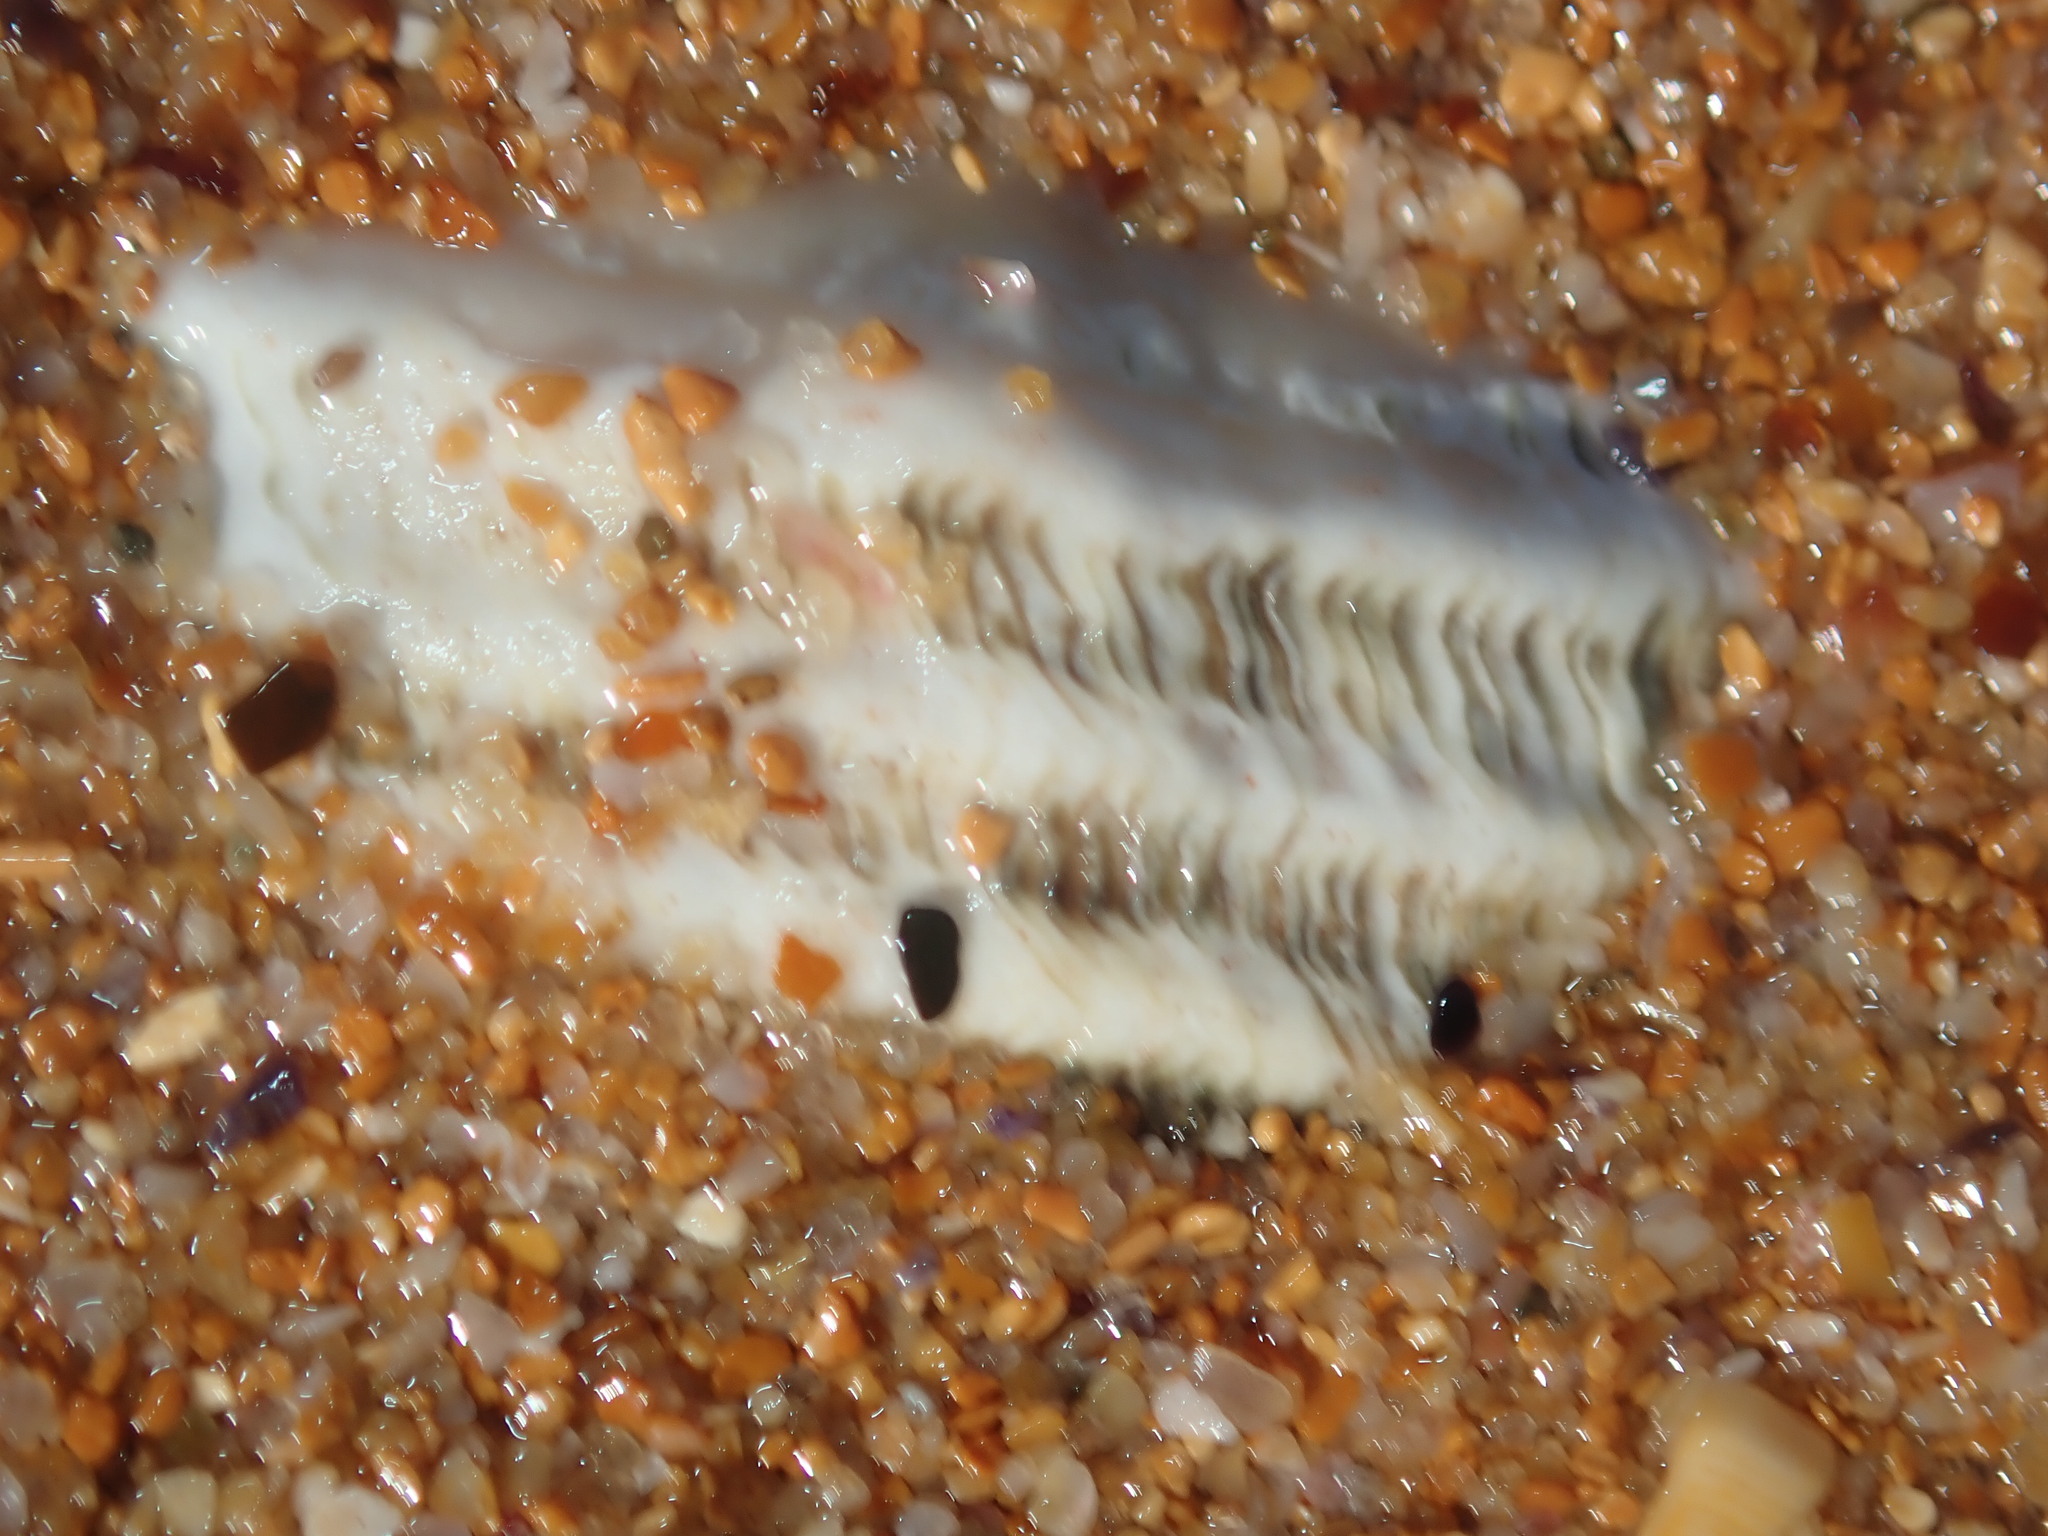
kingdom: Animalia
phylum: Mollusca
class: Gastropoda
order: Trochida
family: Turbinidae
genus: Lunella
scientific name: Lunella torquata
